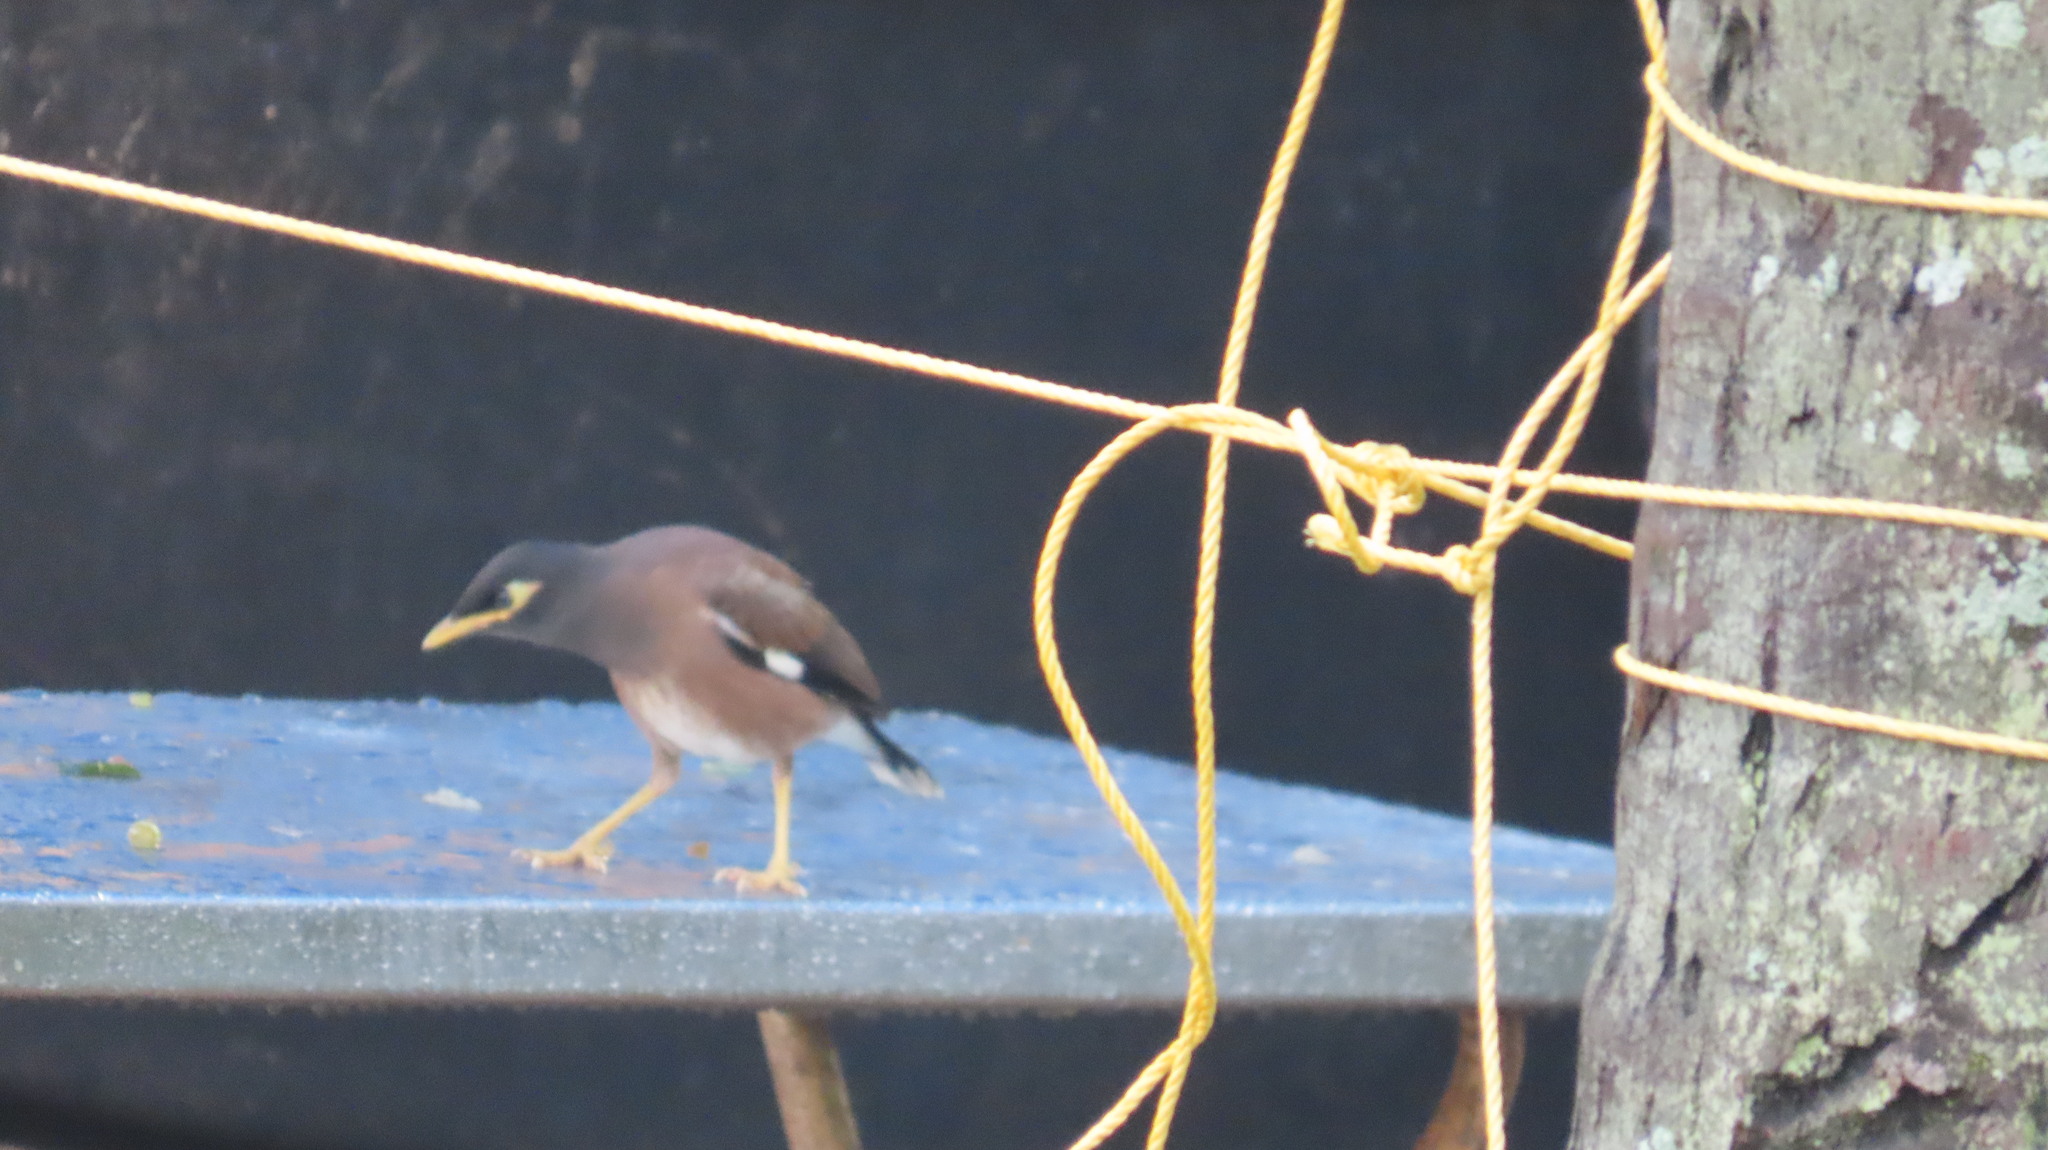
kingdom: Animalia
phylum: Chordata
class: Aves
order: Passeriformes
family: Sturnidae
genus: Acridotheres
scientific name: Acridotheres tristis
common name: Common myna
